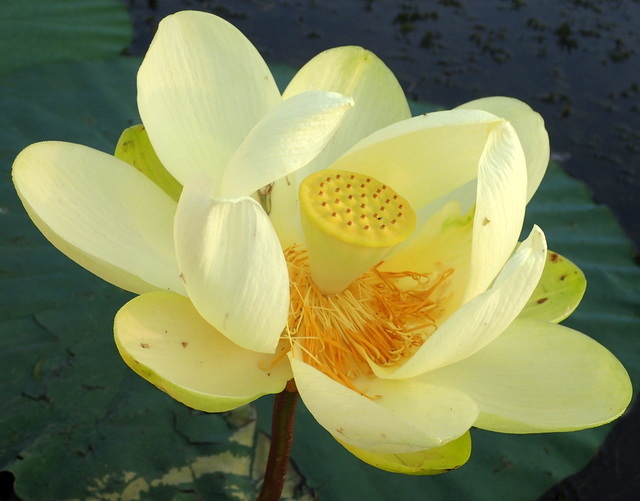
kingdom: Plantae
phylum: Tracheophyta
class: Magnoliopsida
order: Proteales
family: Nelumbonaceae
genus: Nelumbo
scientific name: Nelumbo lutea
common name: American lotus
